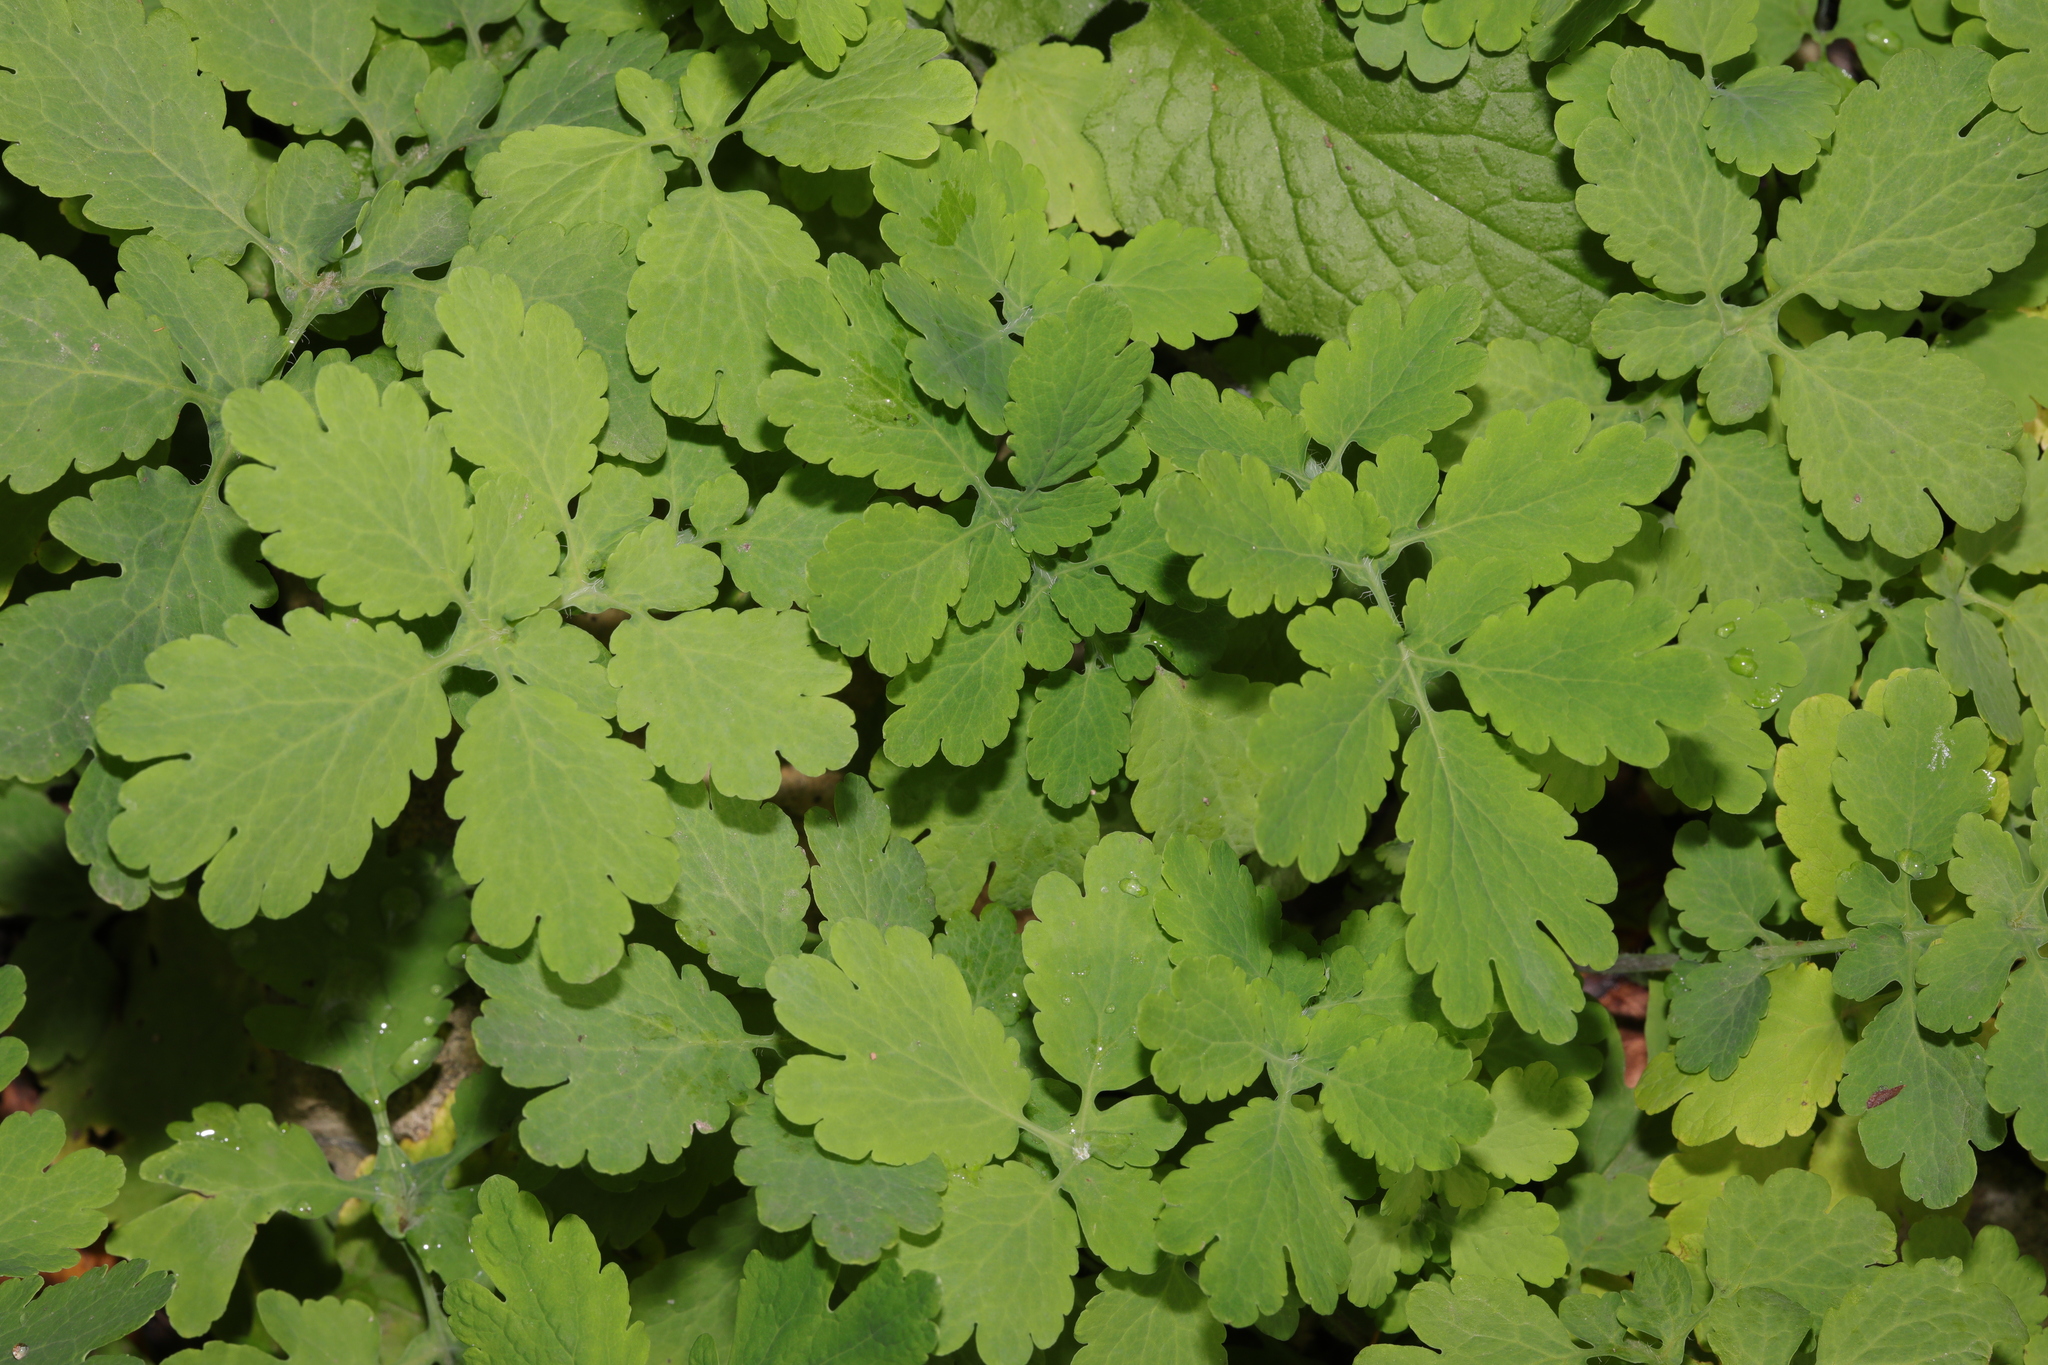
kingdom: Plantae
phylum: Tracheophyta
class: Magnoliopsida
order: Ranunculales
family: Papaveraceae
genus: Chelidonium
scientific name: Chelidonium majus
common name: Greater celandine
